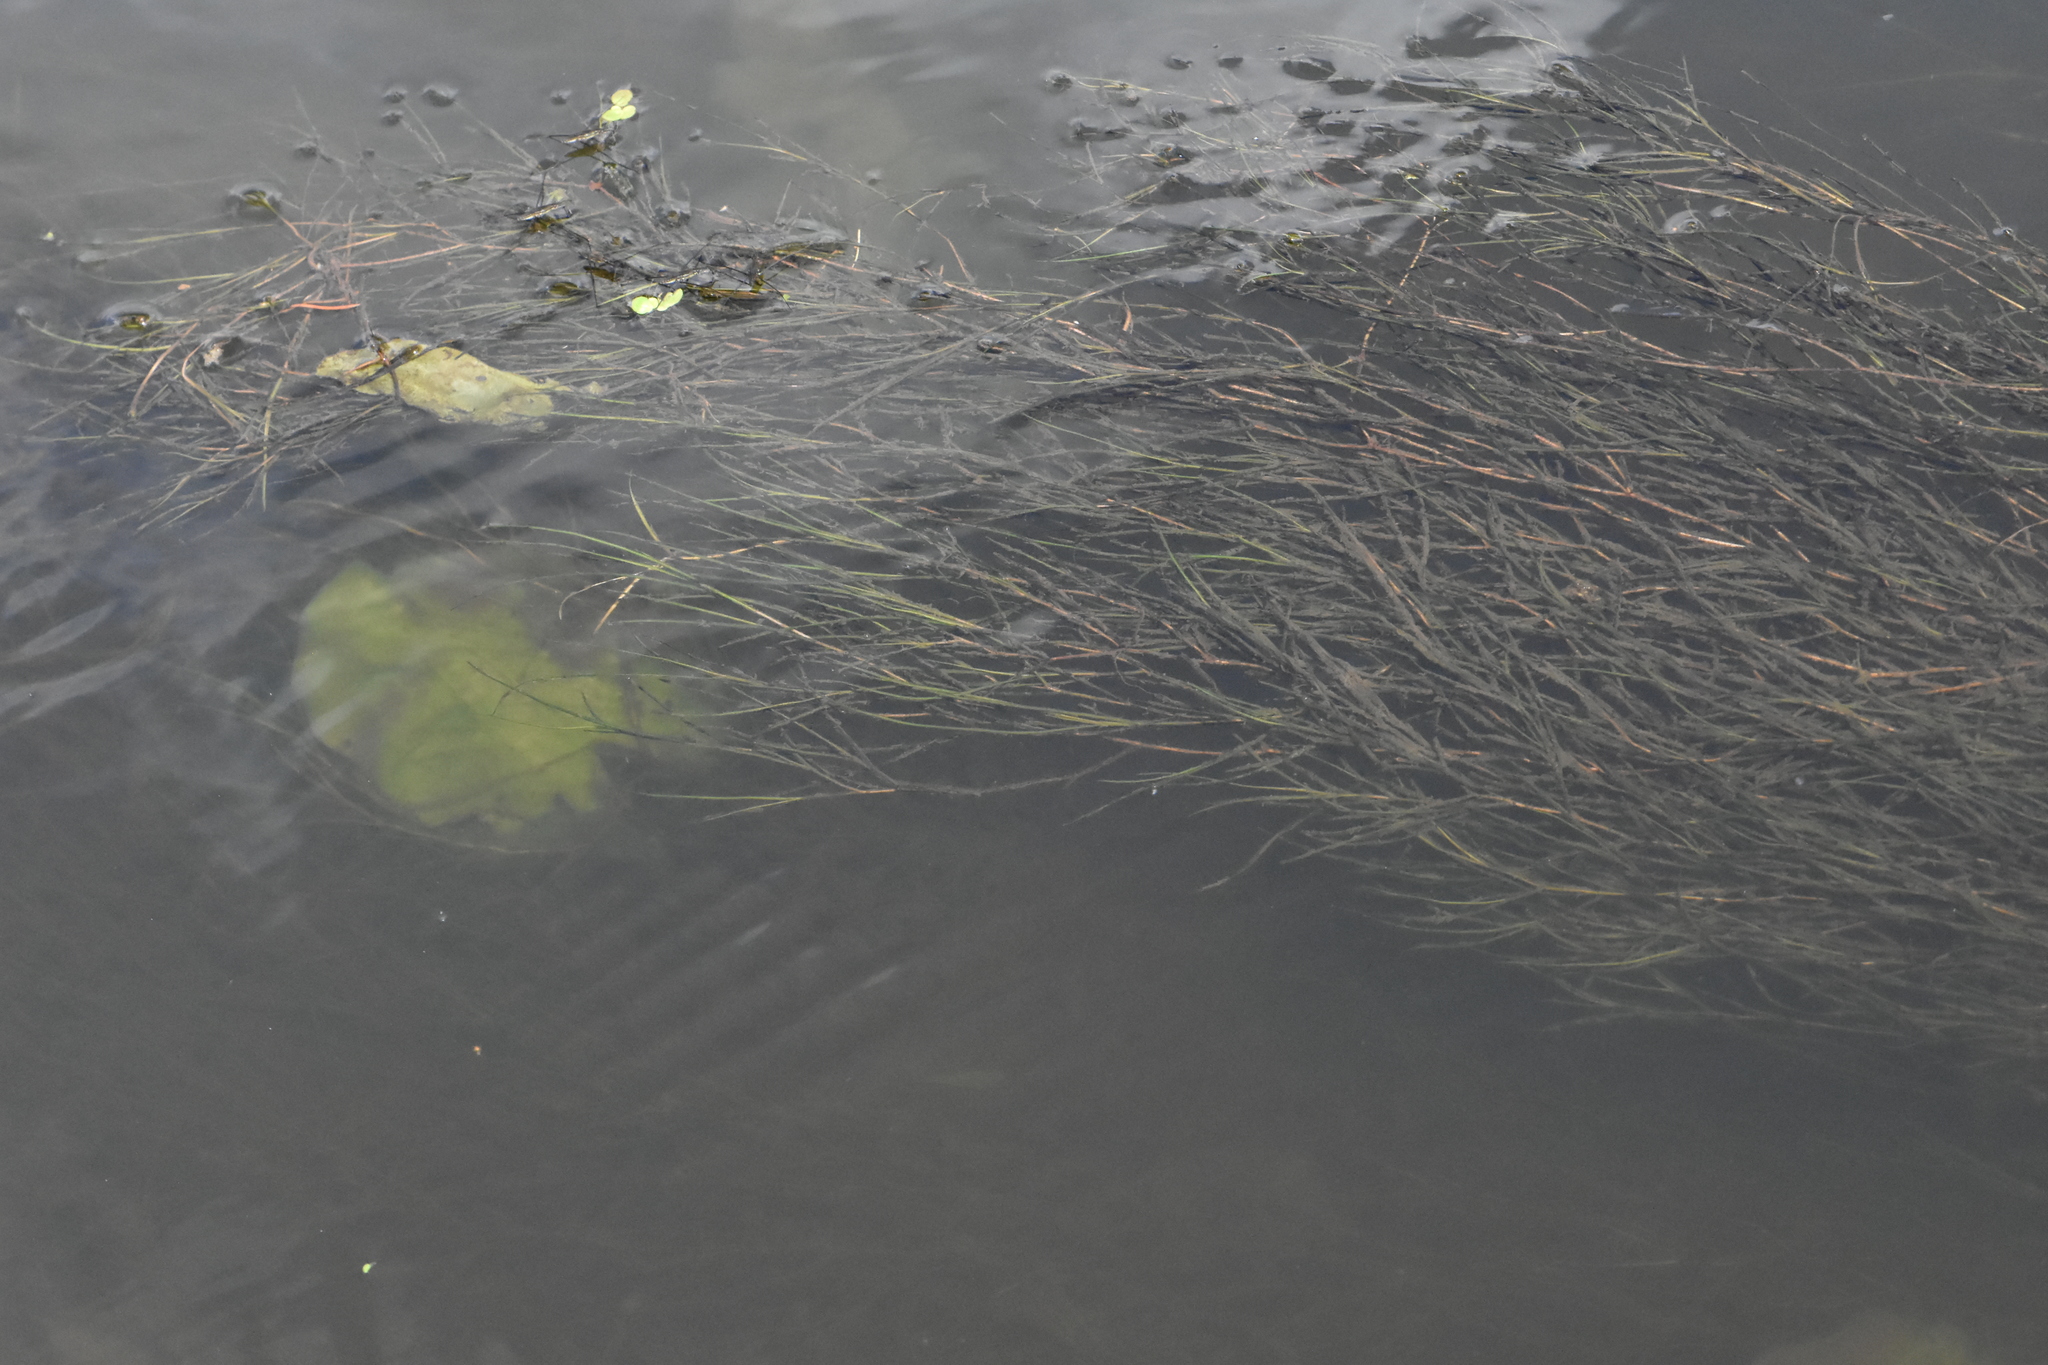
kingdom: Plantae
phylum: Tracheophyta
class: Liliopsida
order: Alismatales
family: Potamogetonaceae
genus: Stuckenia
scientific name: Stuckenia pectinata
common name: Sago pondweed
